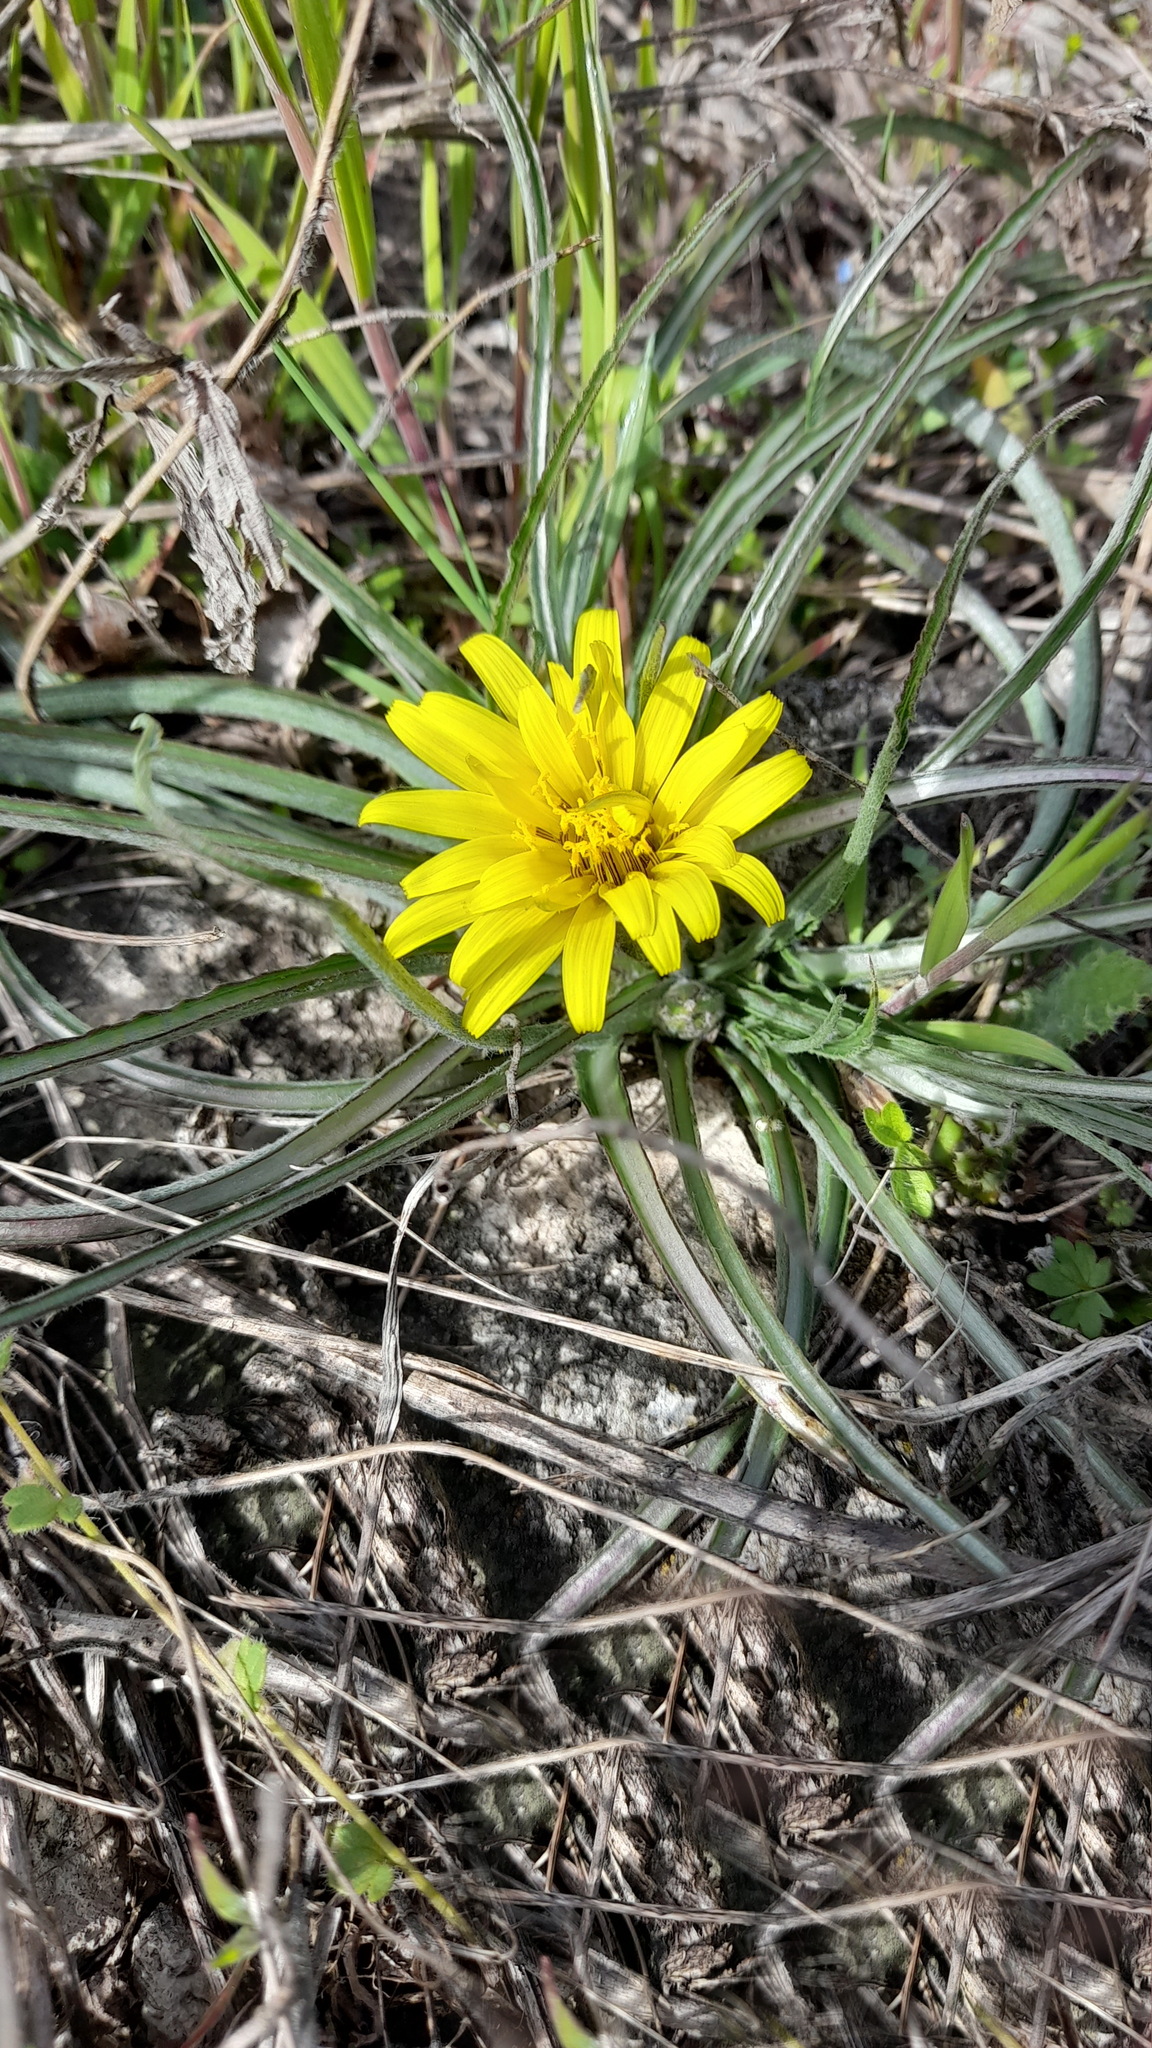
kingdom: Plantae
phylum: Tracheophyta
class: Magnoliopsida
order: Asterales
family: Asteraceae
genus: Candollea
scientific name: Candollea mollis
